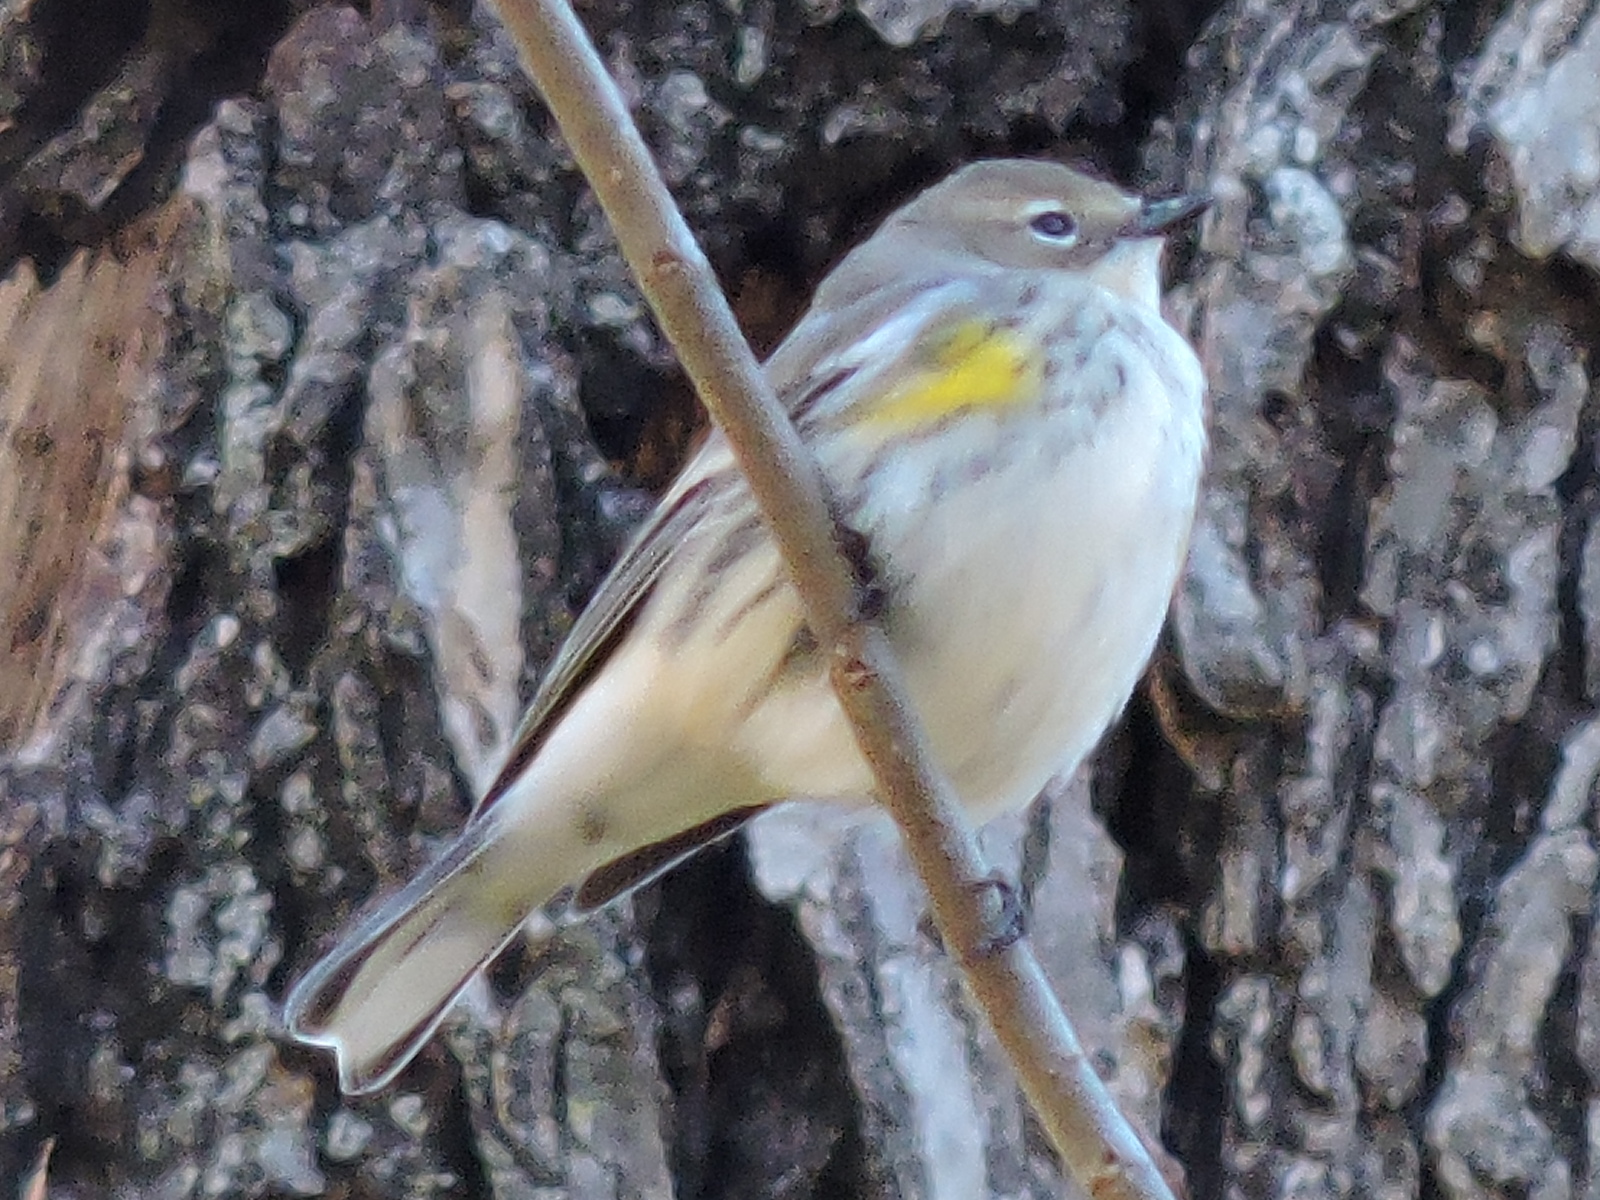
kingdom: Animalia
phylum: Chordata
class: Aves
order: Passeriformes
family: Parulidae
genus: Setophaga
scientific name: Setophaga coronata
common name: Myrtle warbler
